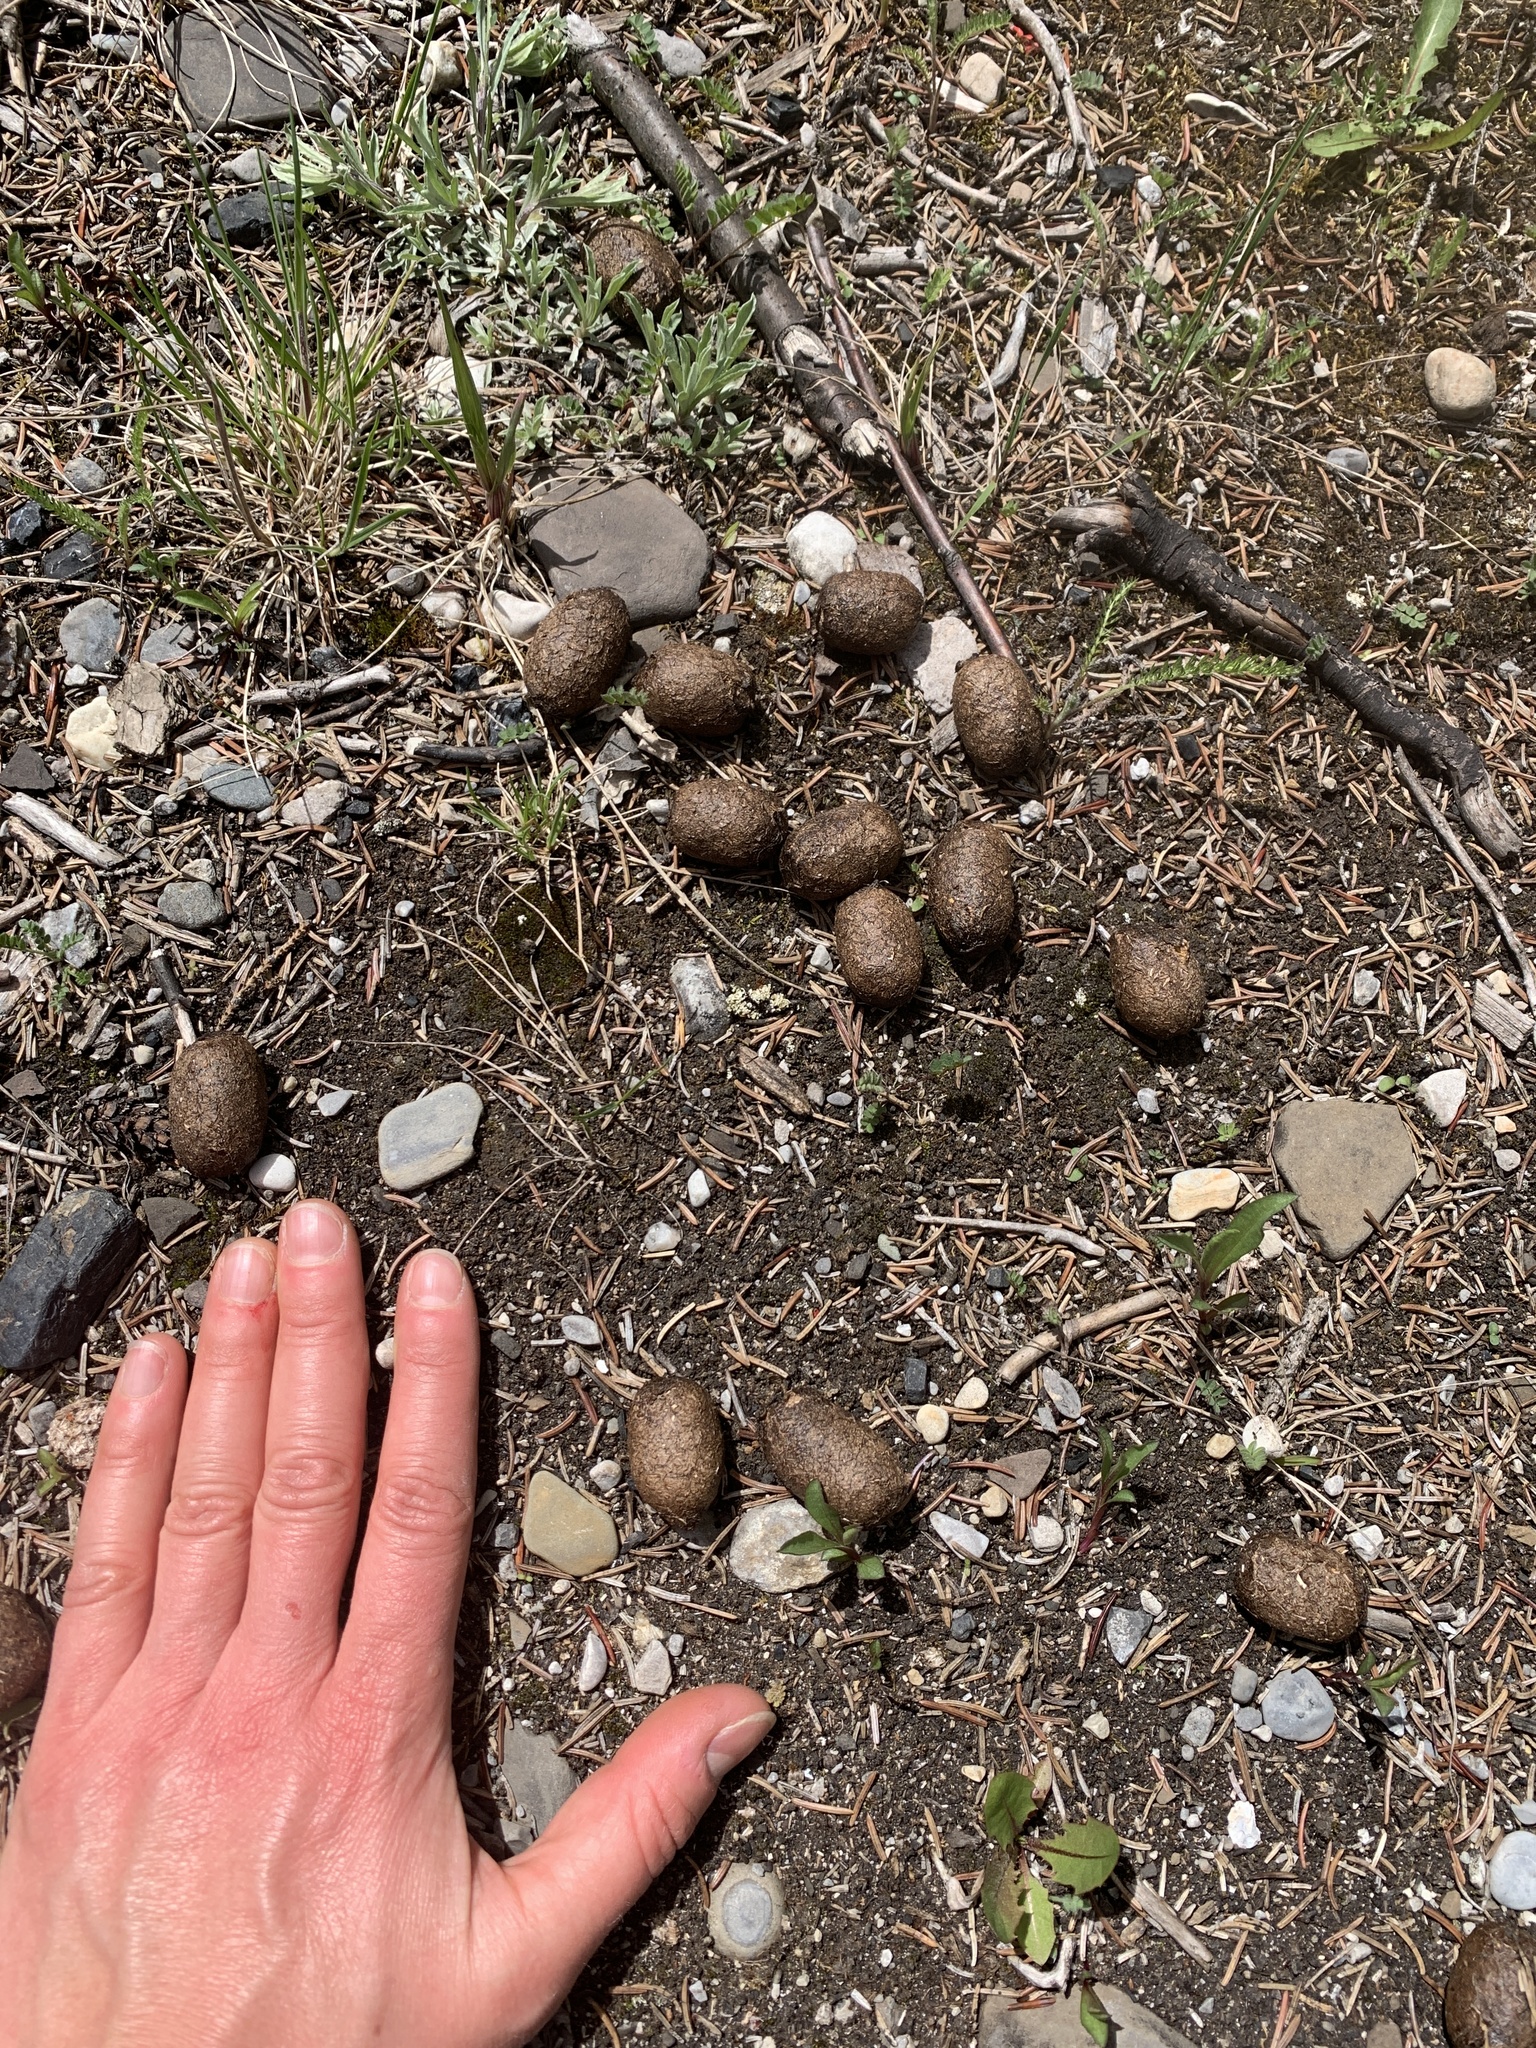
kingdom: Animalia
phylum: Chordata
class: Mammalia
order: Artiodactyla
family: Cervidae
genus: Alces
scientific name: Alces alces
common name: Moose
